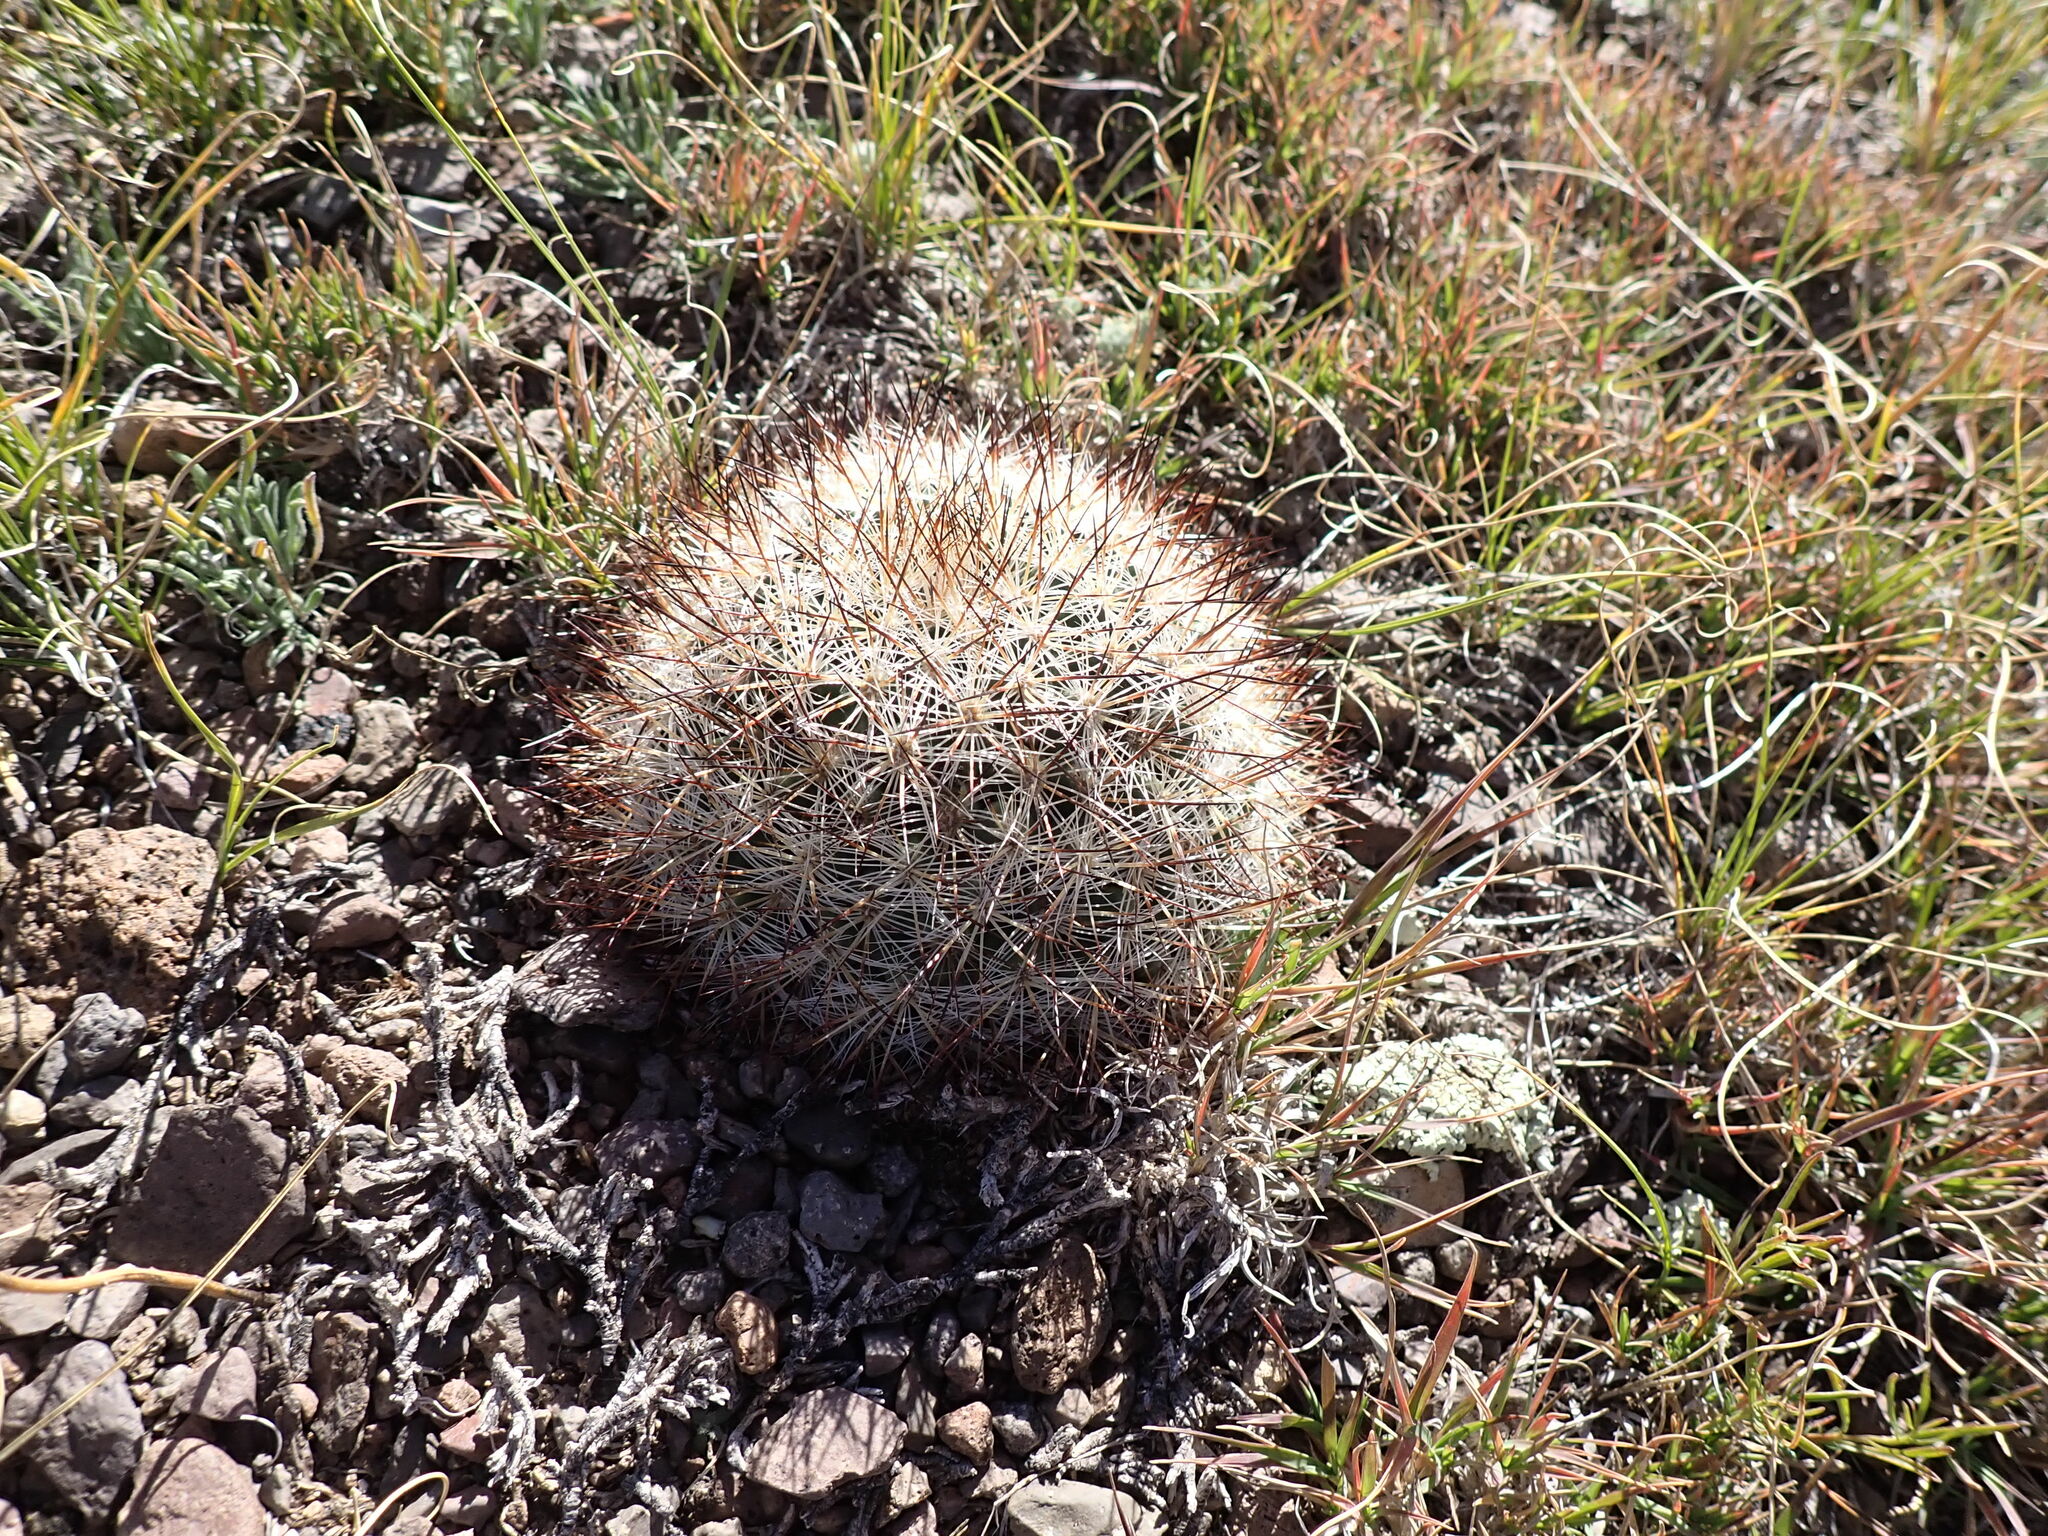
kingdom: Plantae
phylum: Tracheophyta
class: Magnoliopsida
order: Caryophyllales
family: Cactaceae
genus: Pediocactus
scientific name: Pediocactus simpsonii
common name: Simpson's hedgehog cactus
